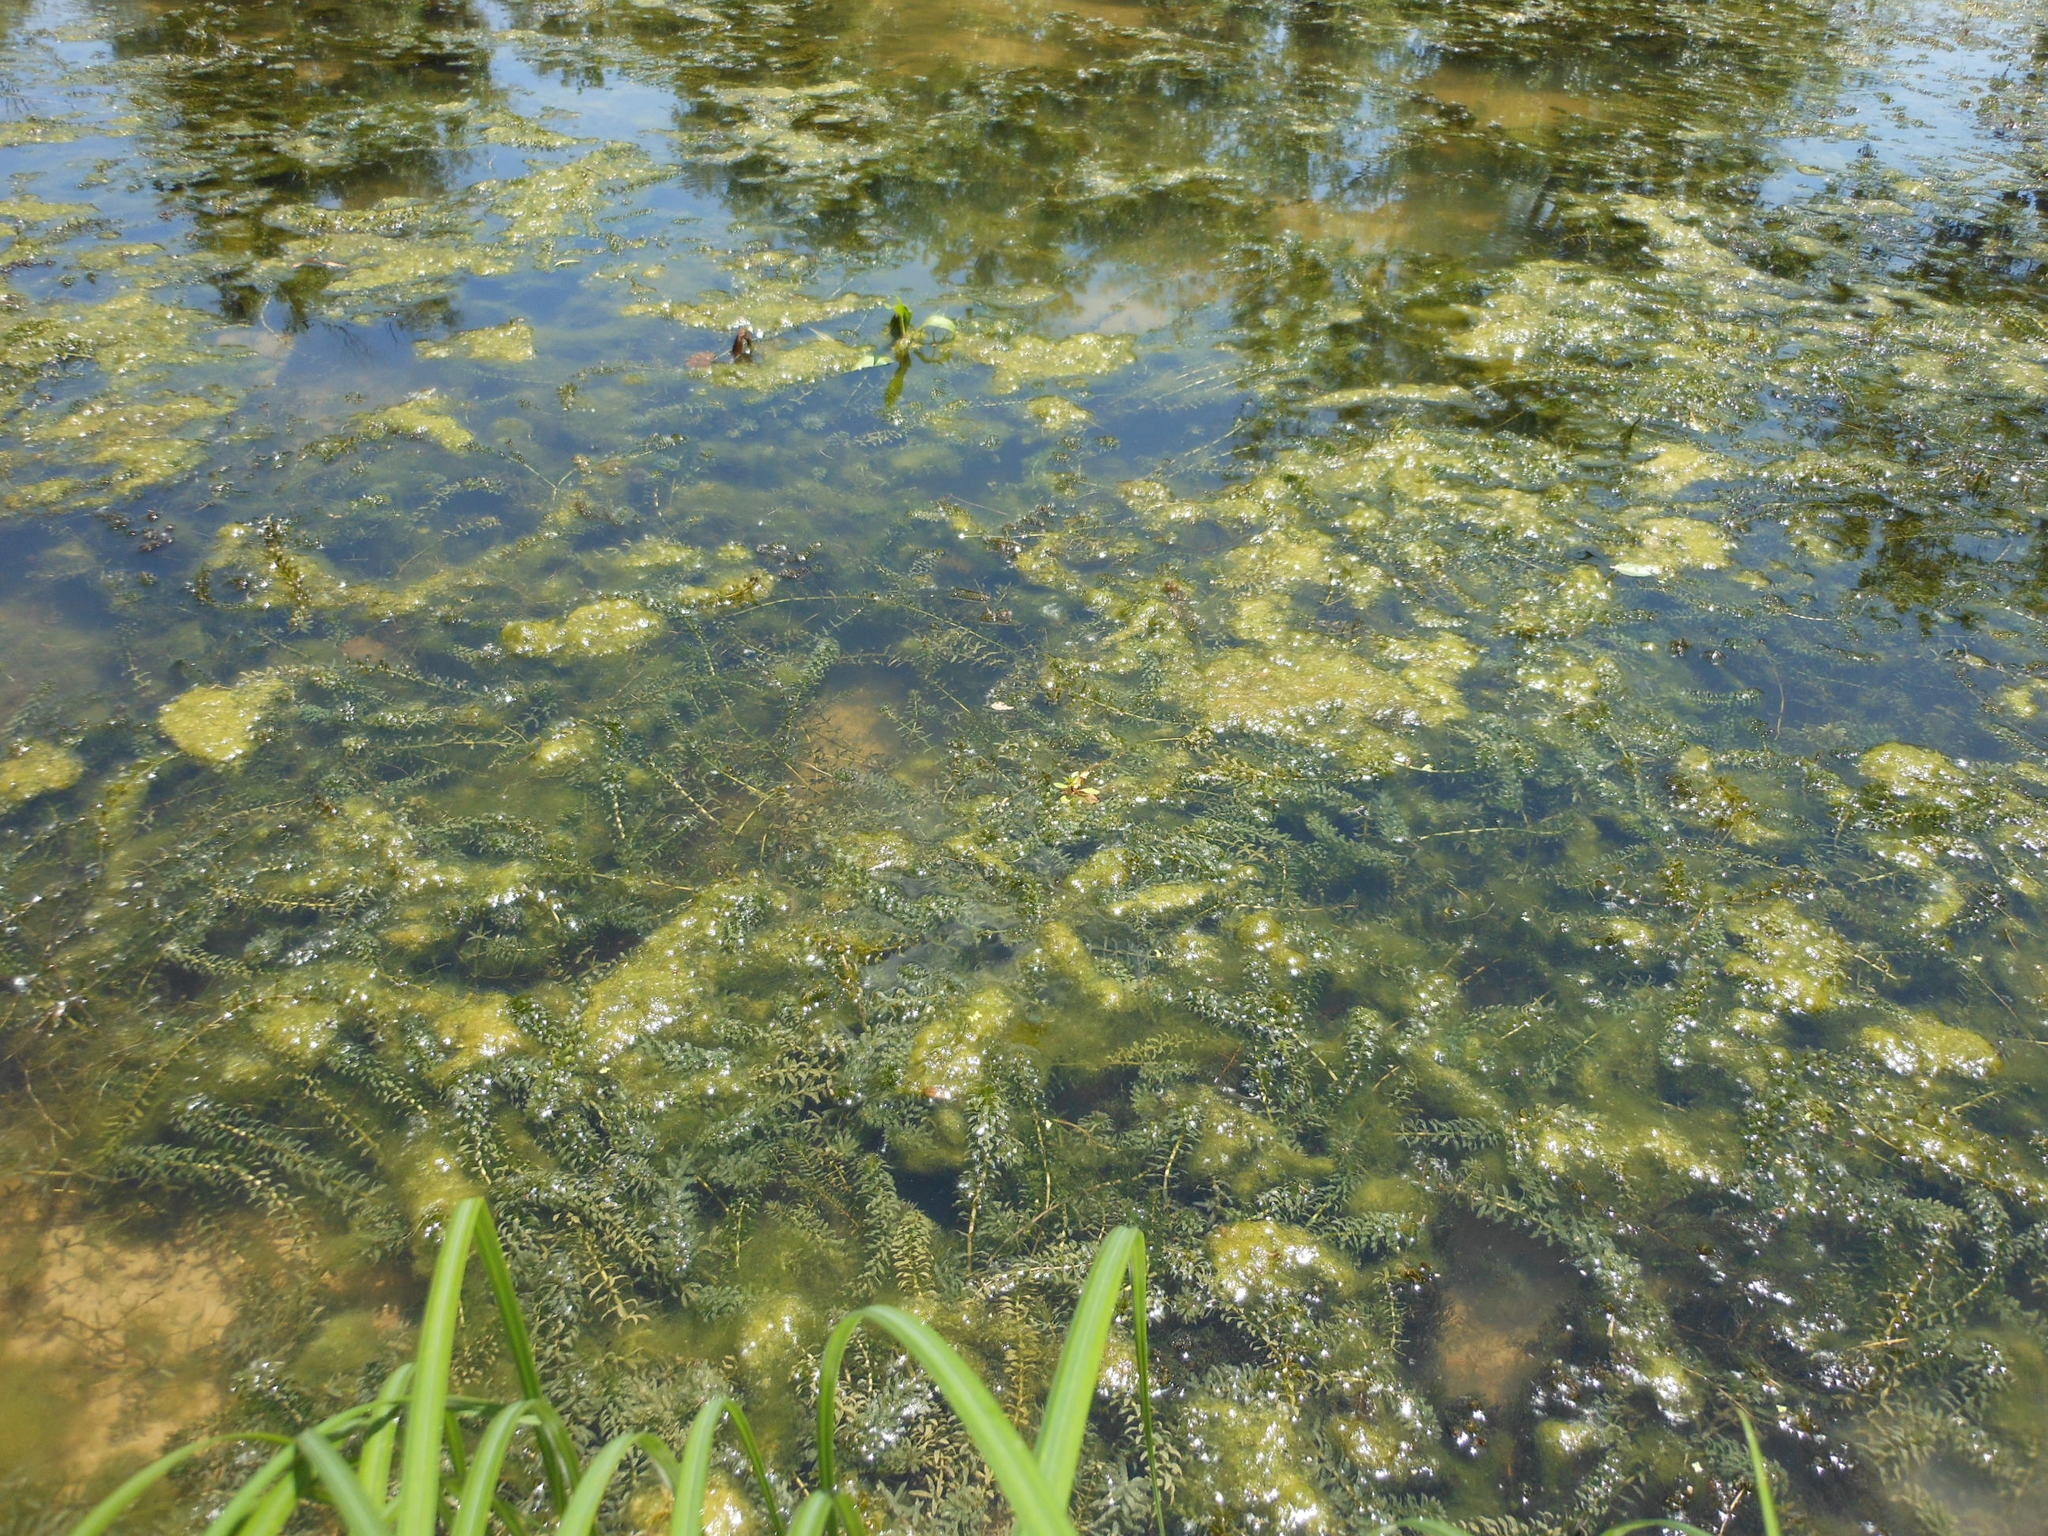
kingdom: Plantae
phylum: Tracheophyta
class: Liliopsida
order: Alismatales
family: Hydrocharitaceae
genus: Elodea
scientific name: Elodea densa
